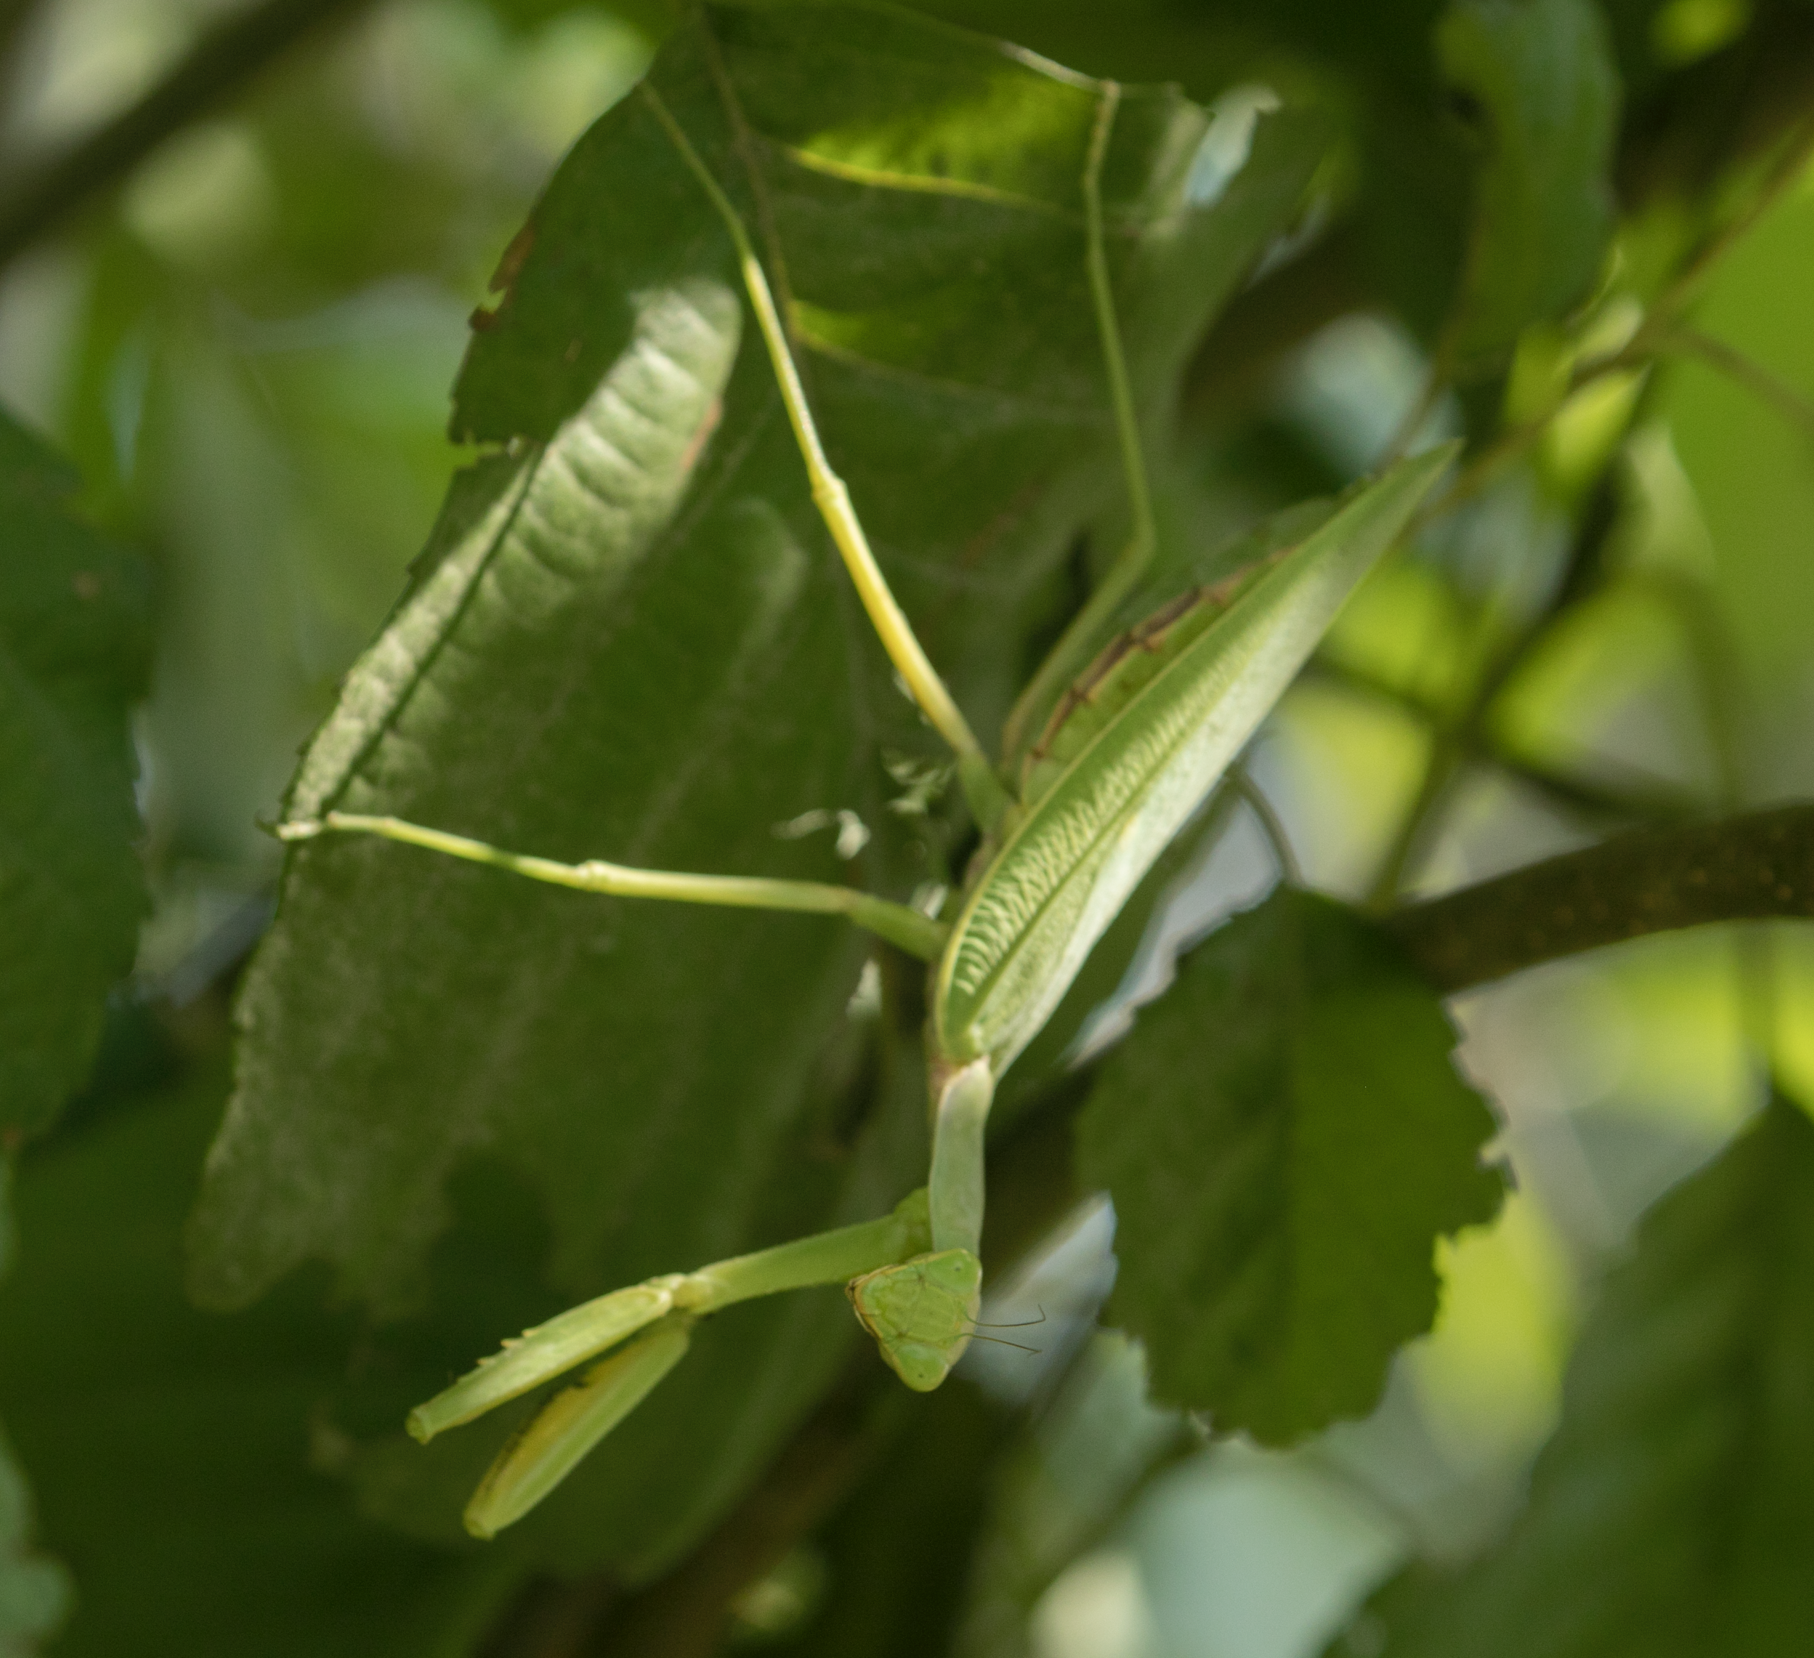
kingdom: Animalia
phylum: Arthropoda
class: Insecta
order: Mantodea
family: Mantidae
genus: Hierodula
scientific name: Hierodula transcaucasica
